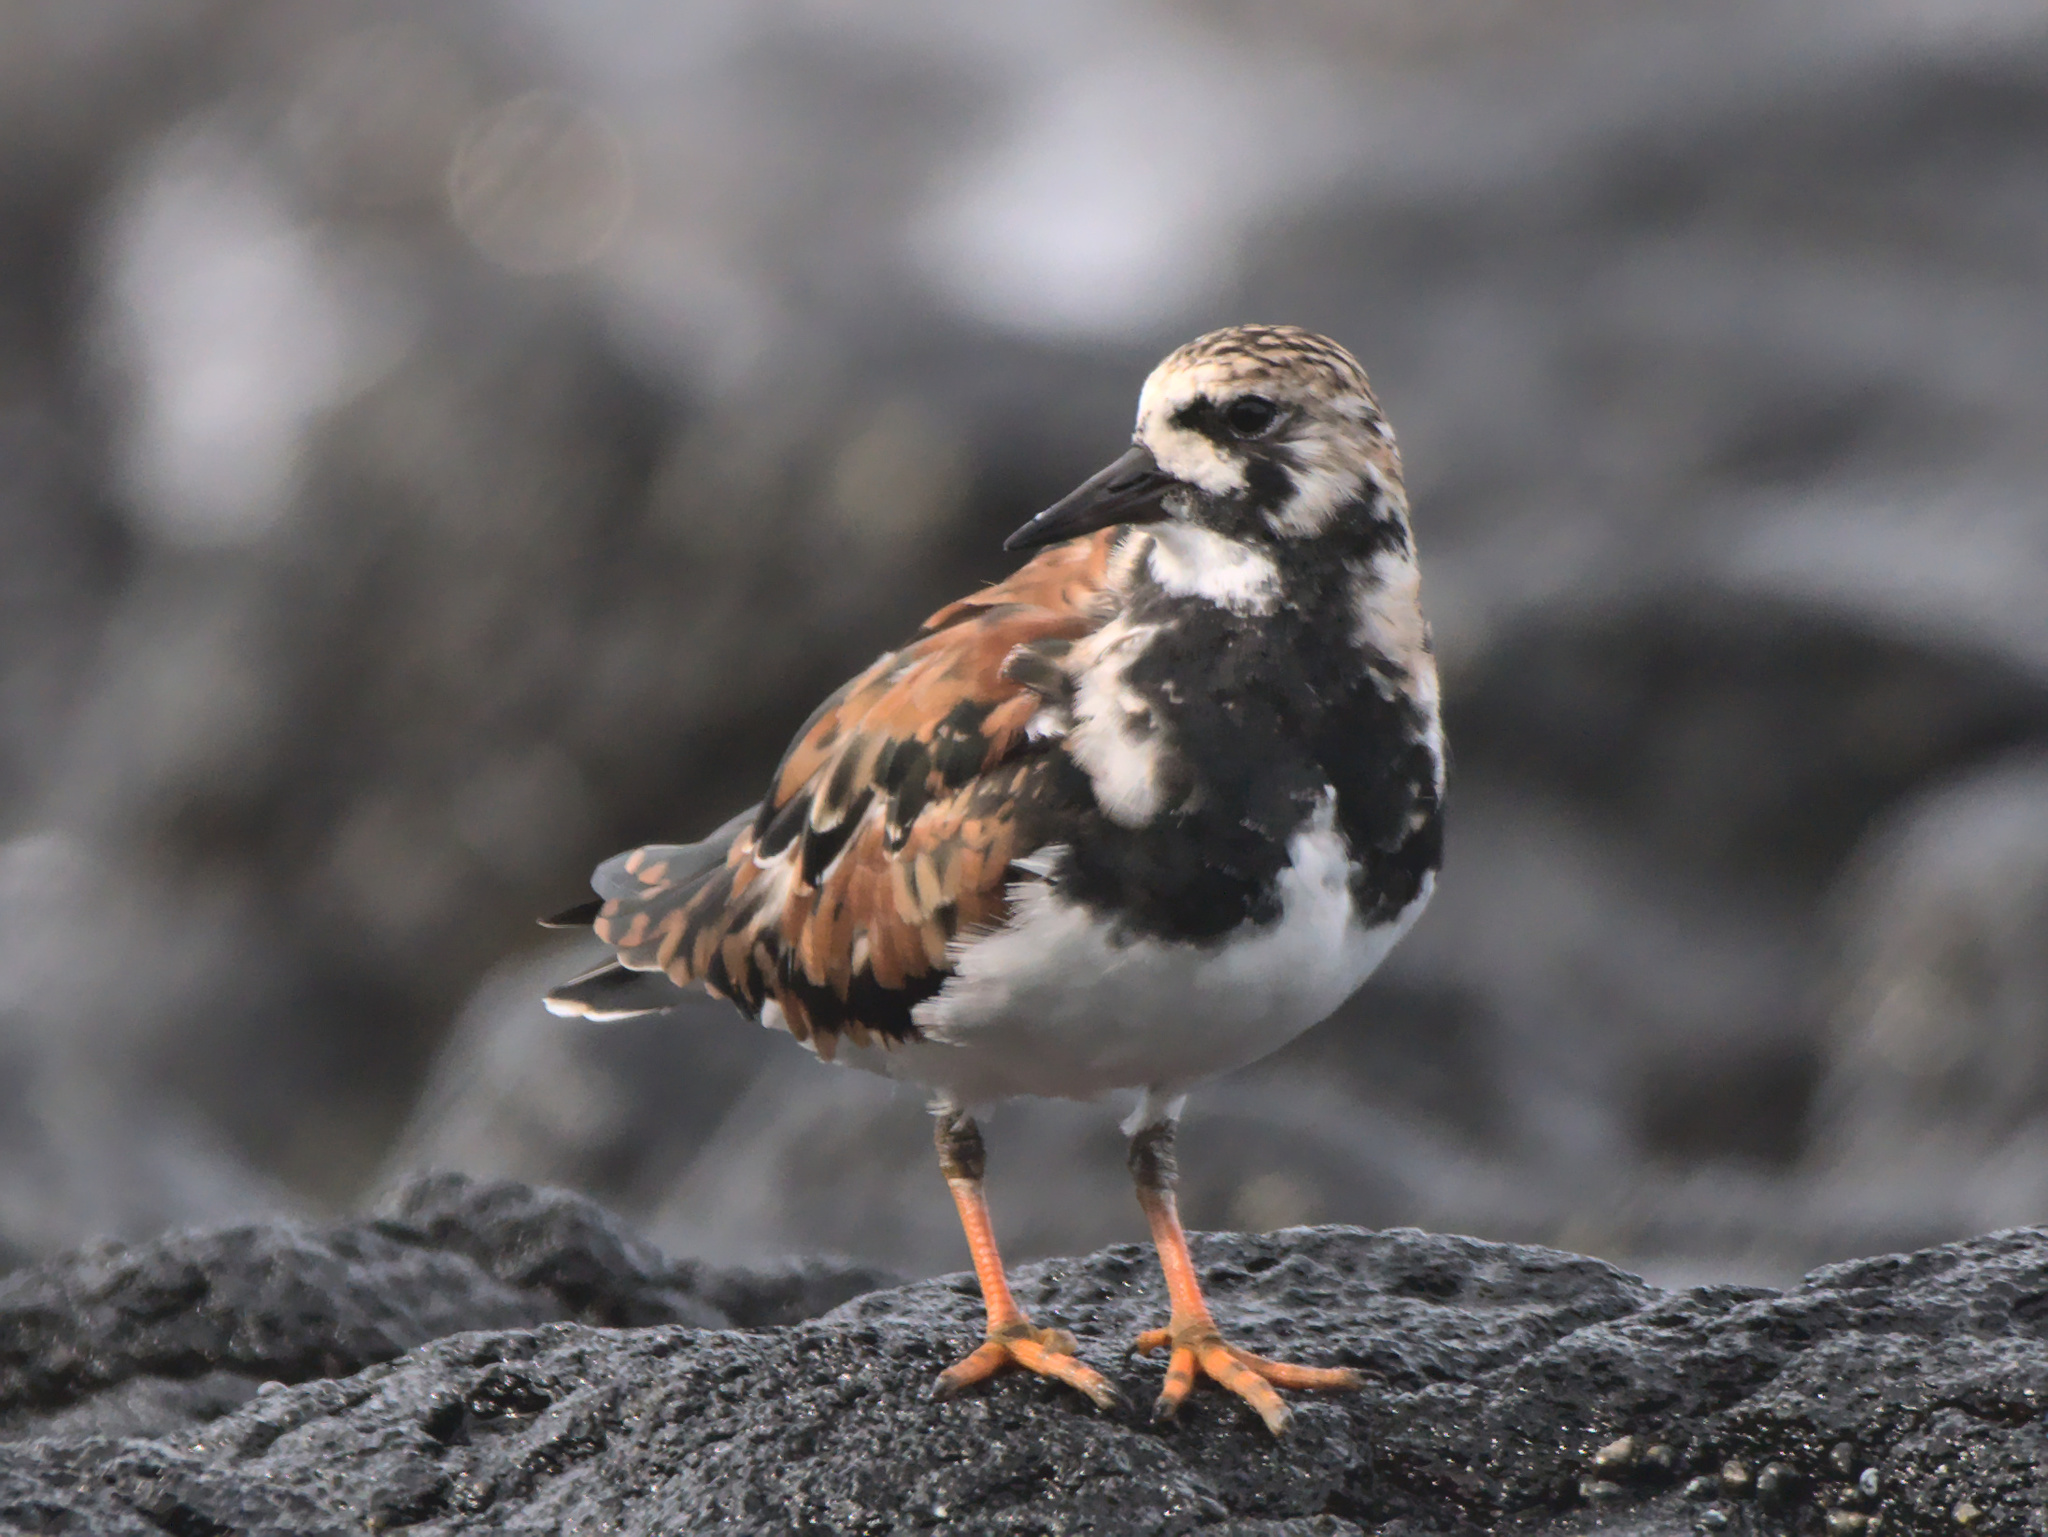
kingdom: Animalia
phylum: Chordata
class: Aves
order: Charadriiformes
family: Scolopacidae
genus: Arenaria
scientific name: Arenaria interpres
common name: Ruddy turnstone
